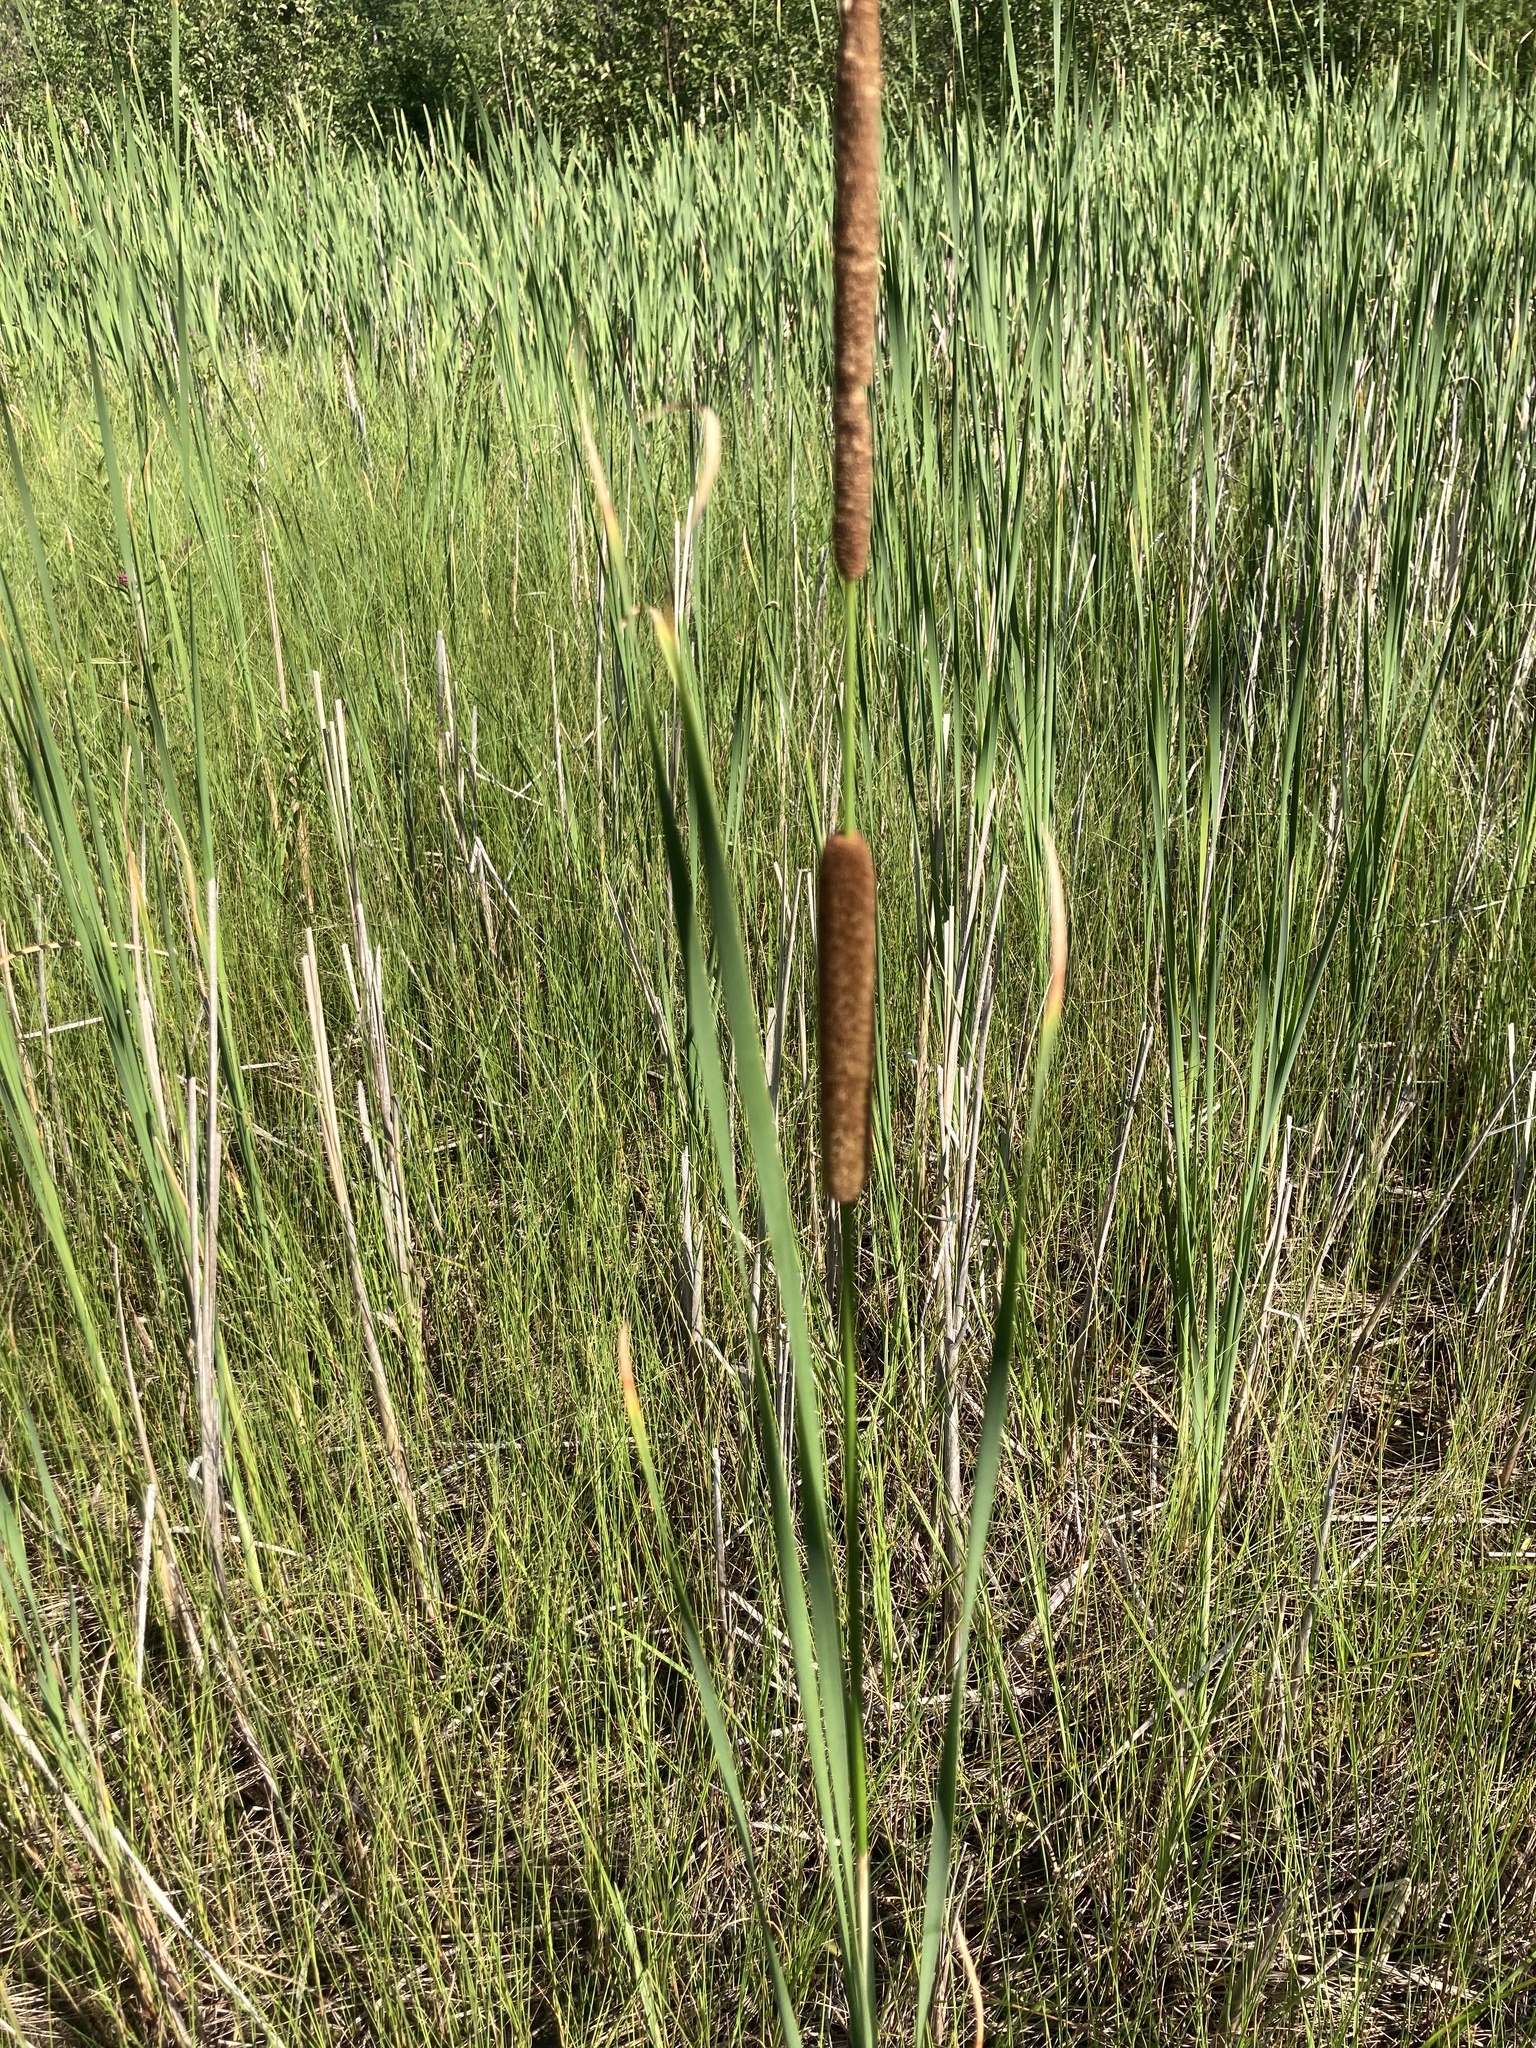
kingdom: Plantae
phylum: Tracheophyta
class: Liliopsida
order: Poales
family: Typhaceae
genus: Typha
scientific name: Typha angustifolia
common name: Lesser bulrush
